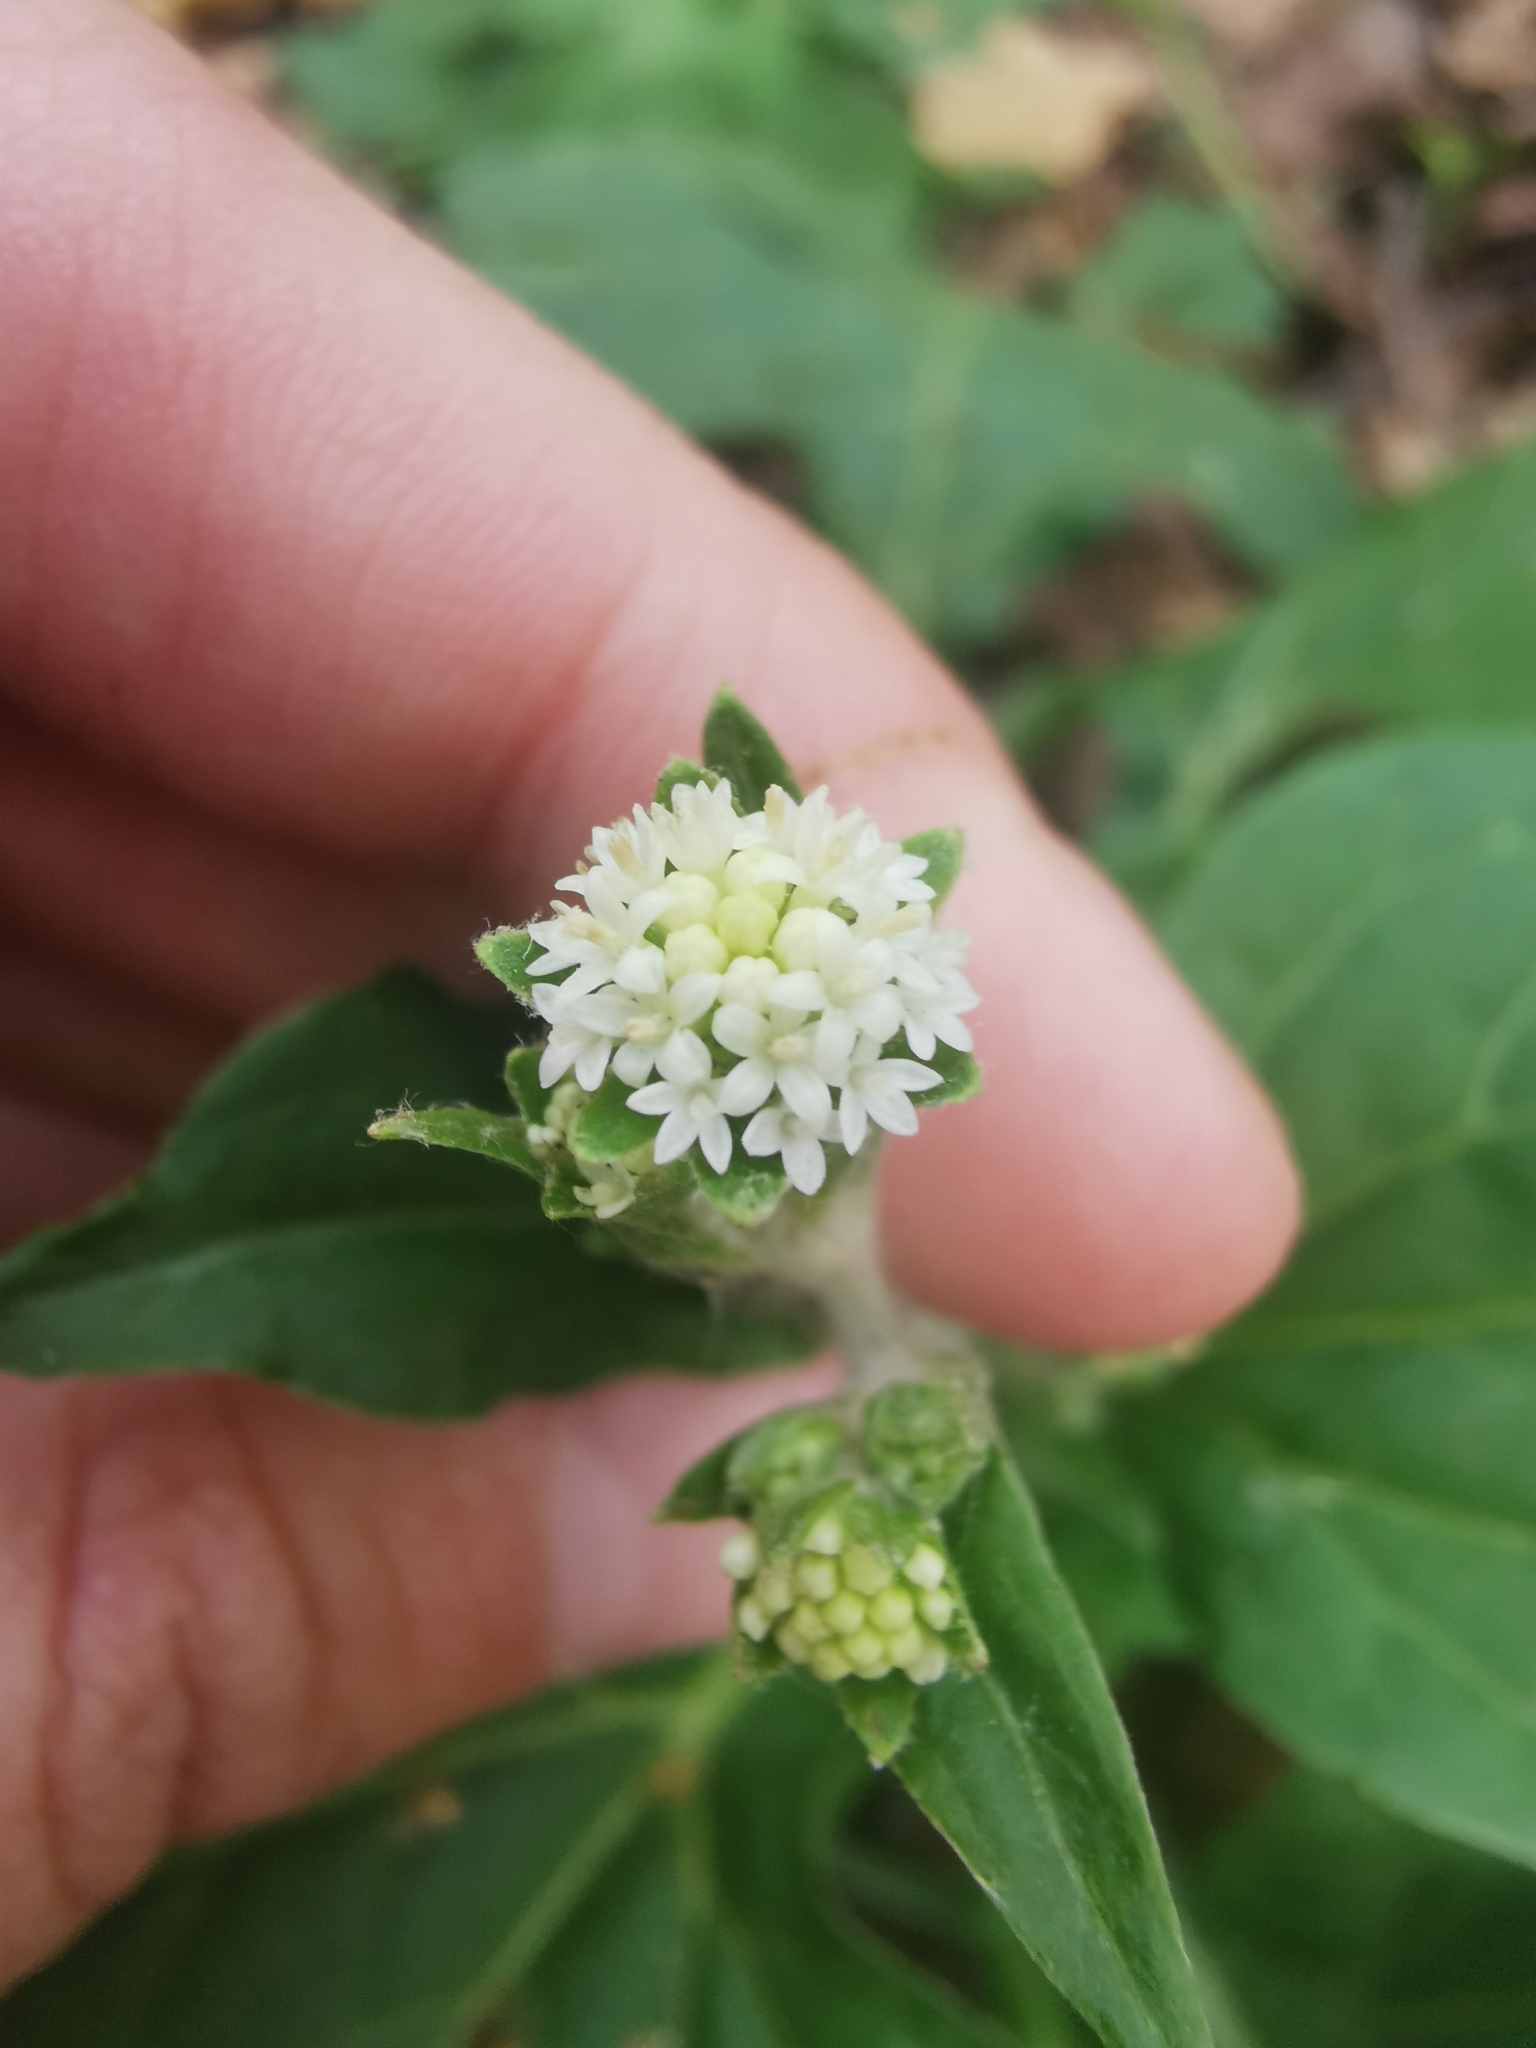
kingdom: Plantae
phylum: Tracheophyta
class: Magnoliopsida
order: Asterales
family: Asteraceae
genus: Adenocaulon
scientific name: Adenocaulon himalaicum
